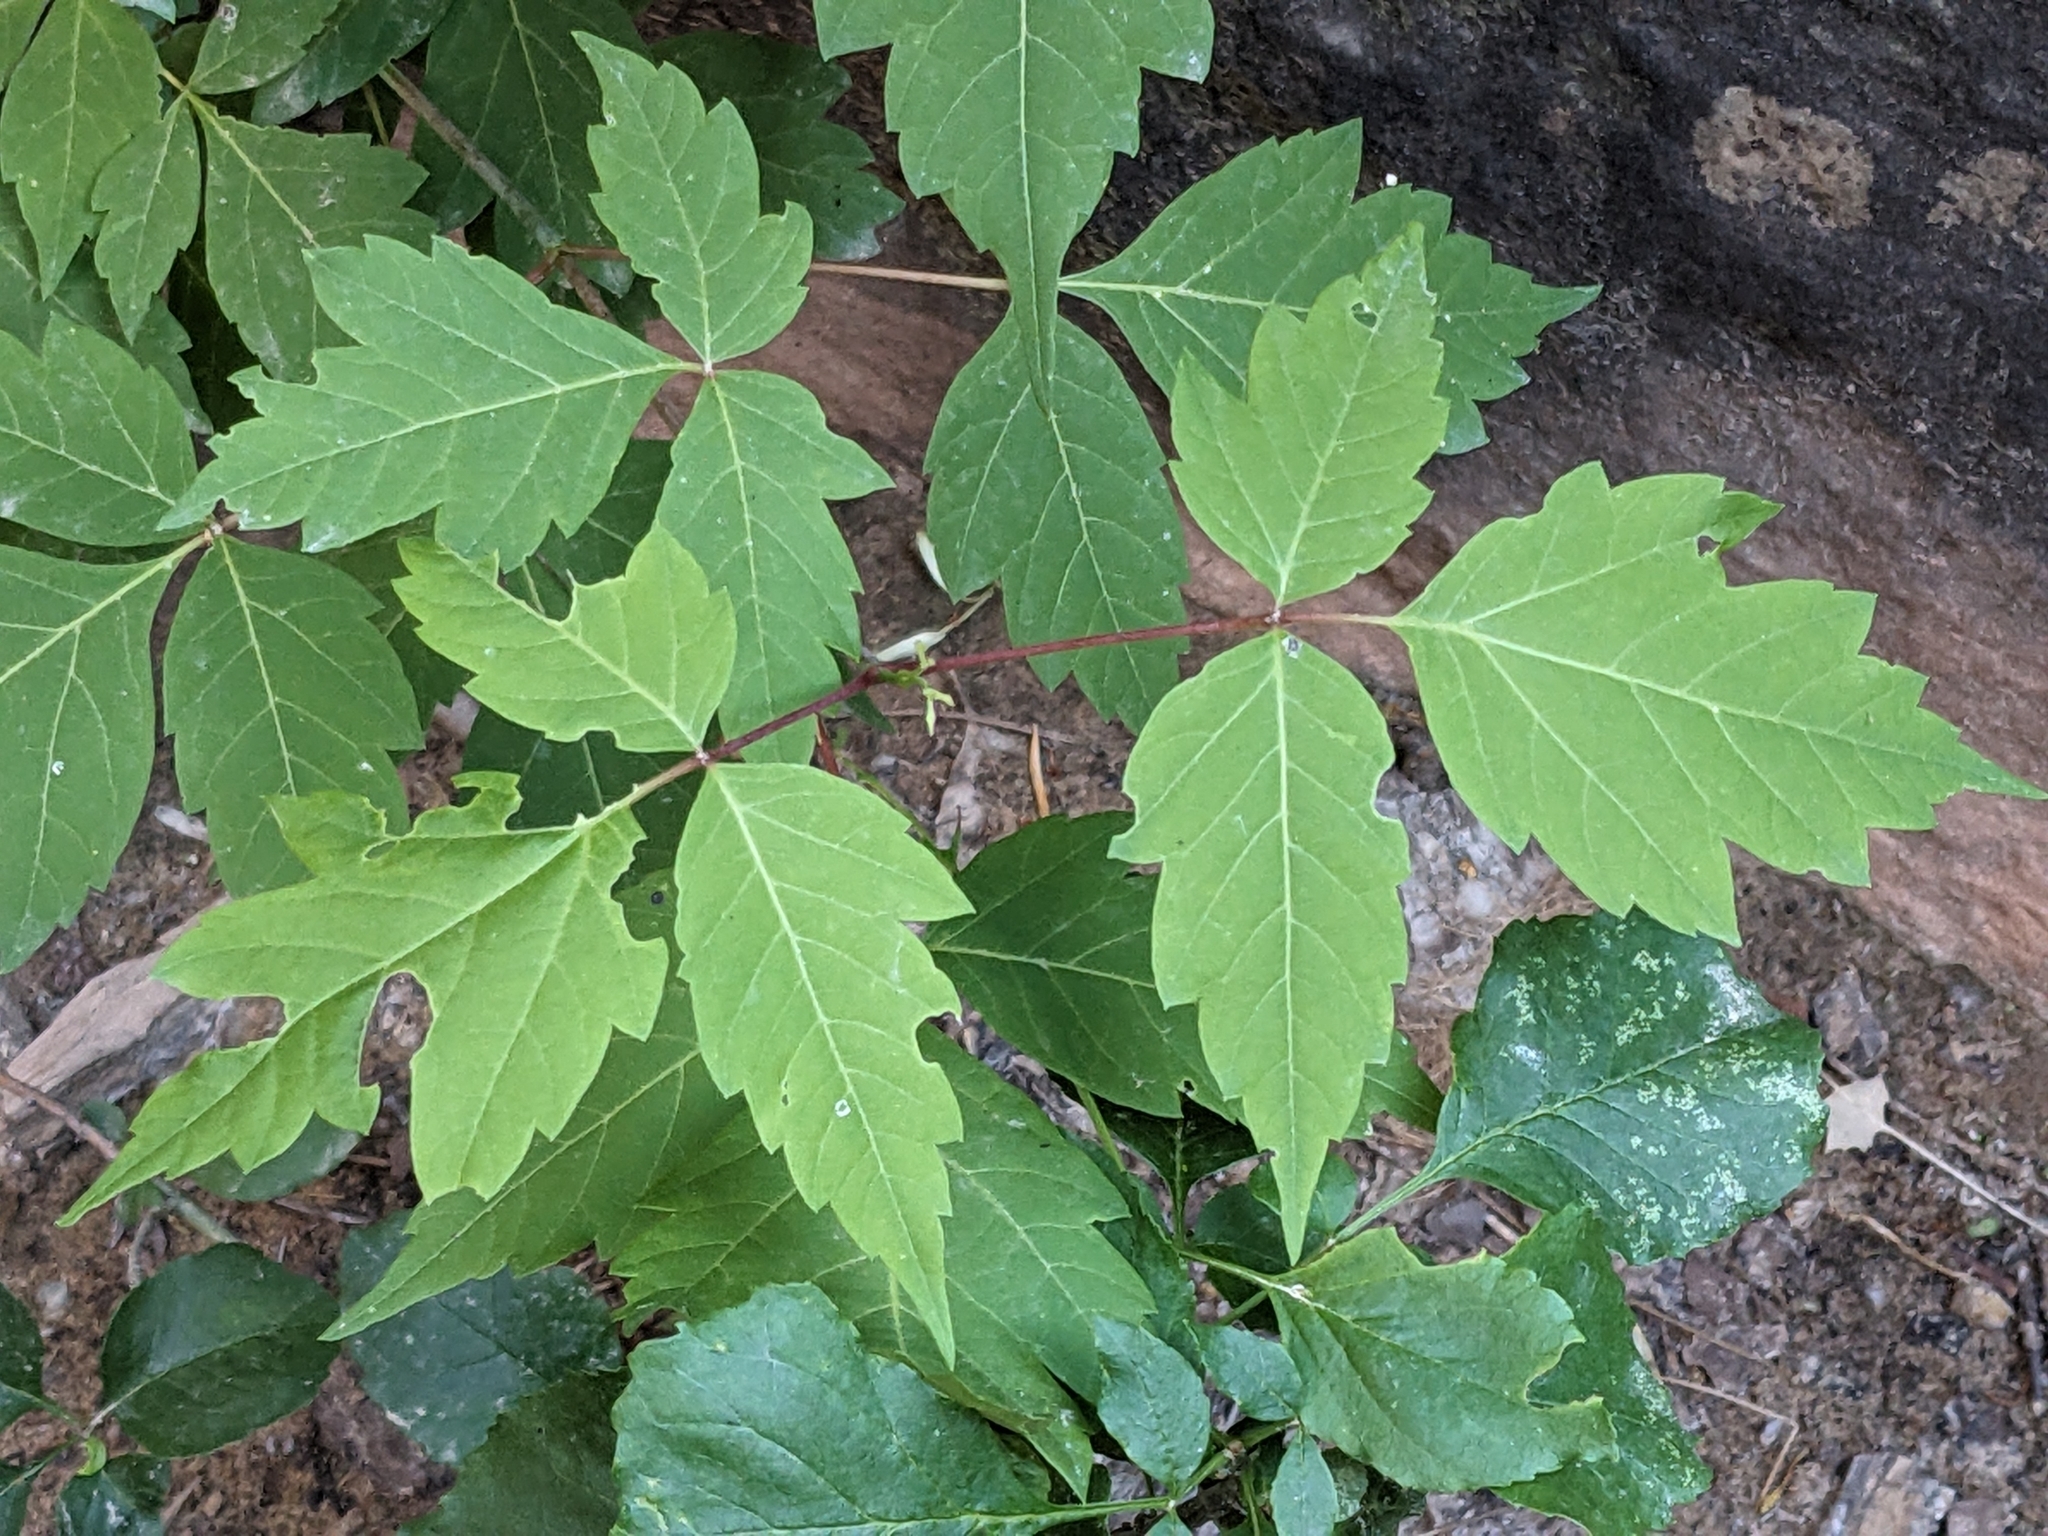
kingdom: Plantae
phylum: Tracheophyta
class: Magnoliopsida
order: Sapindales
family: Sapindaceae
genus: Acer
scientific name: Acer negundo
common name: Ashleaf maple
